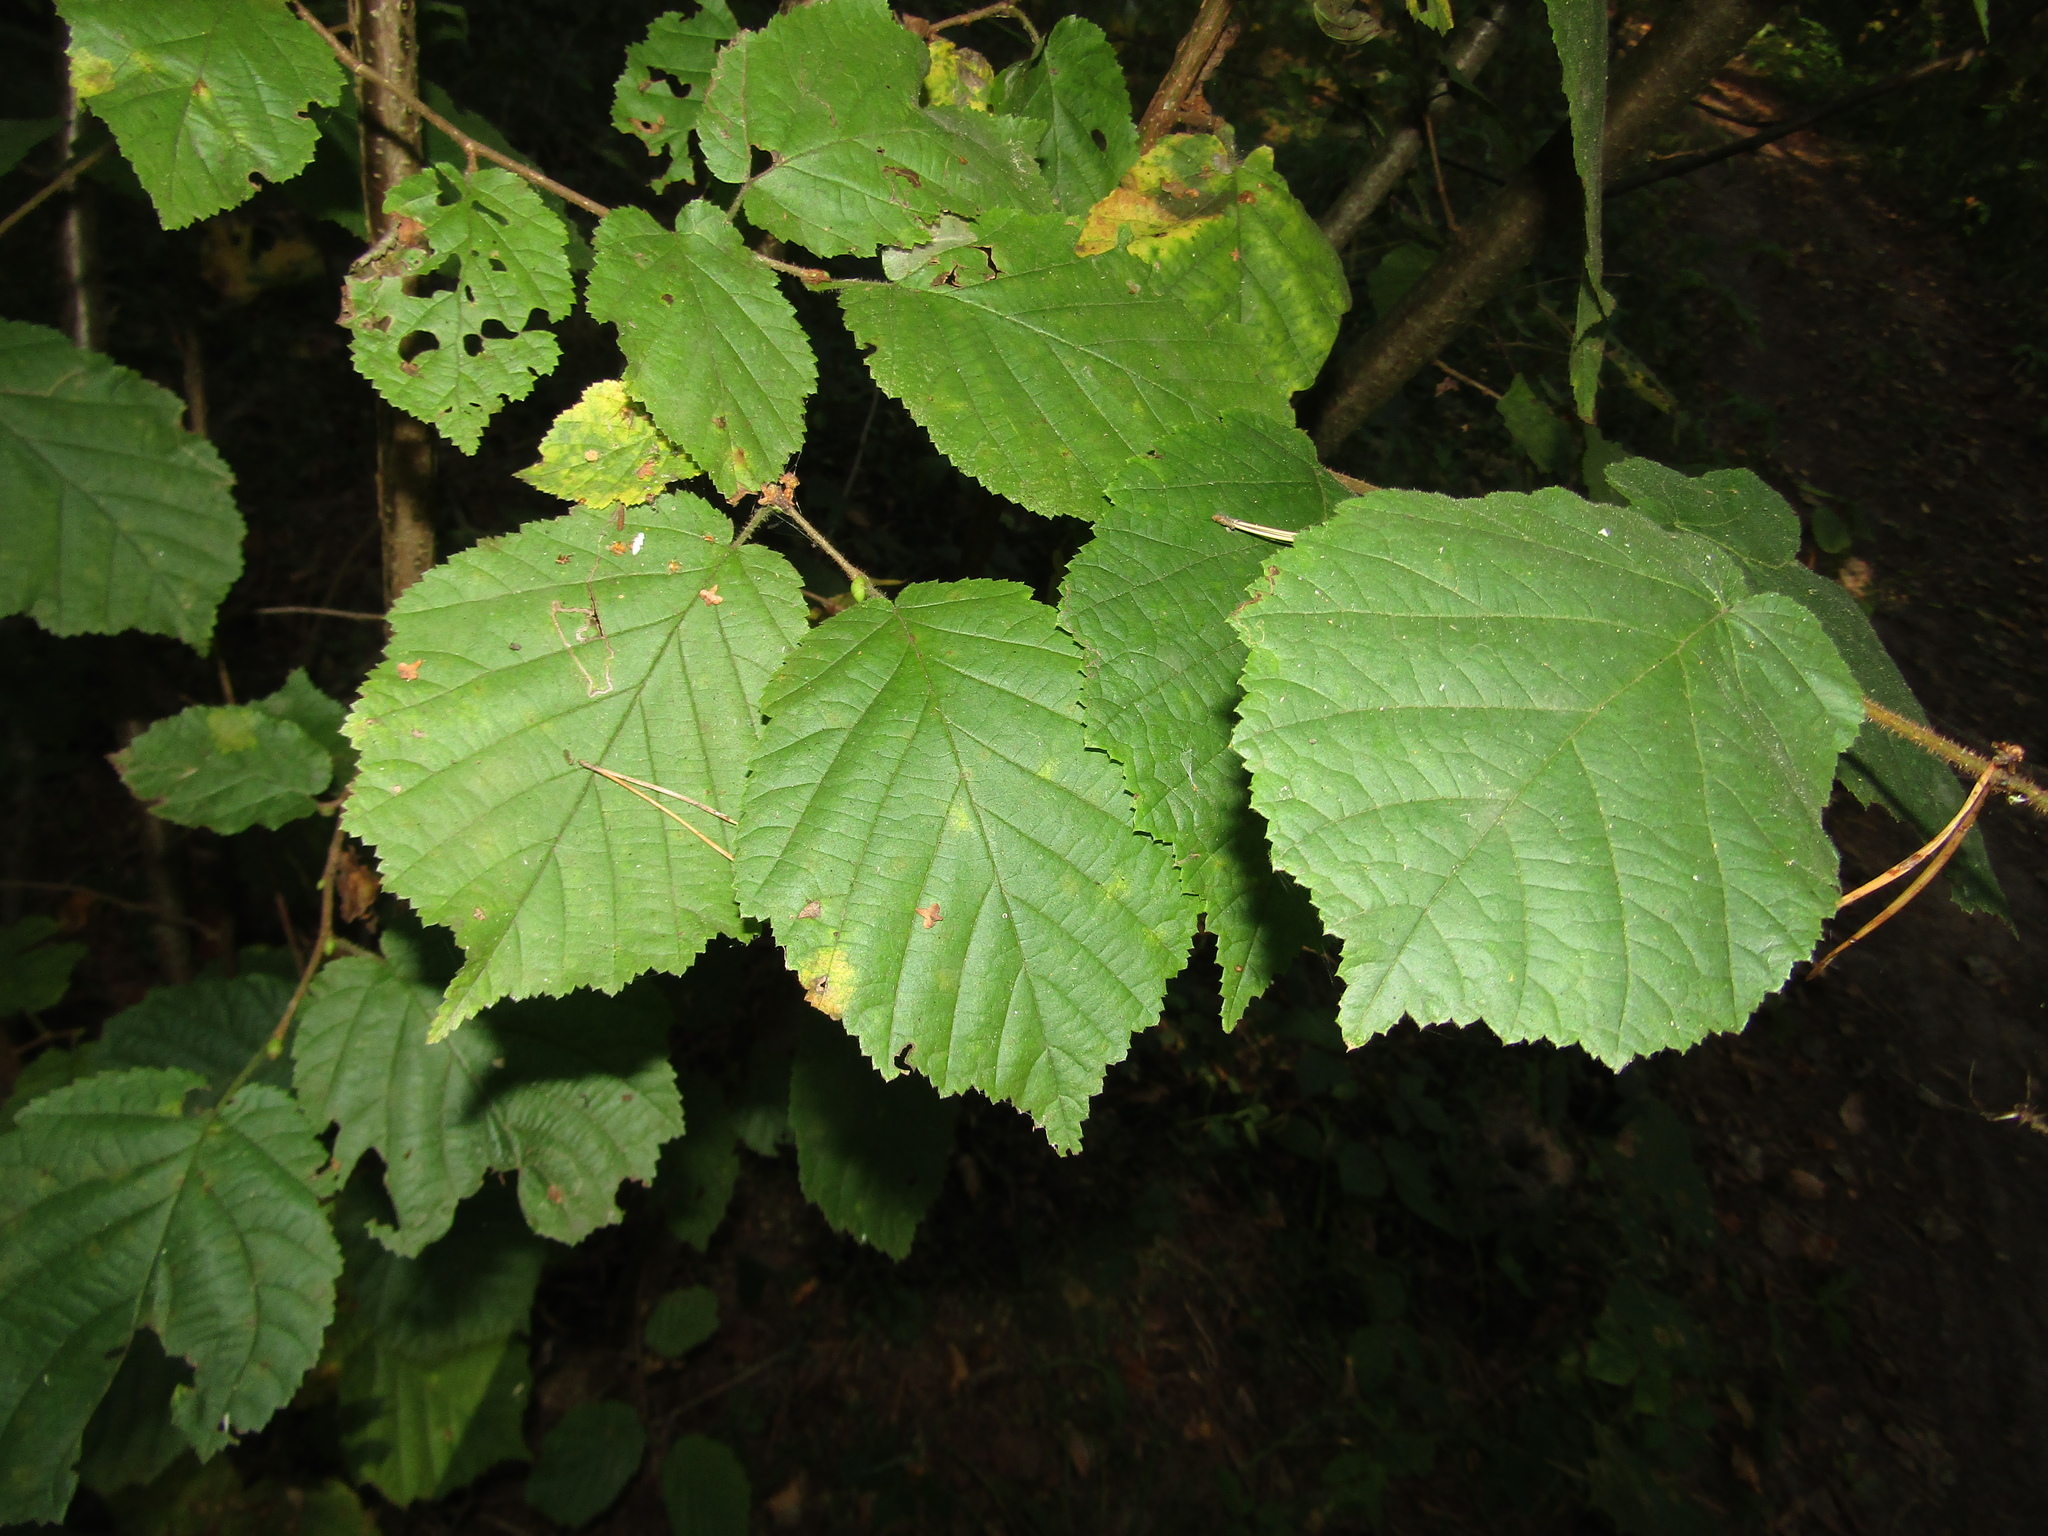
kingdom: Plantae
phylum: Tracheophyta
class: Magnoliopsida
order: Fagales
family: Betulaceae
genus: Corylus
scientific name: Corylus avellana
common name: European hazel
